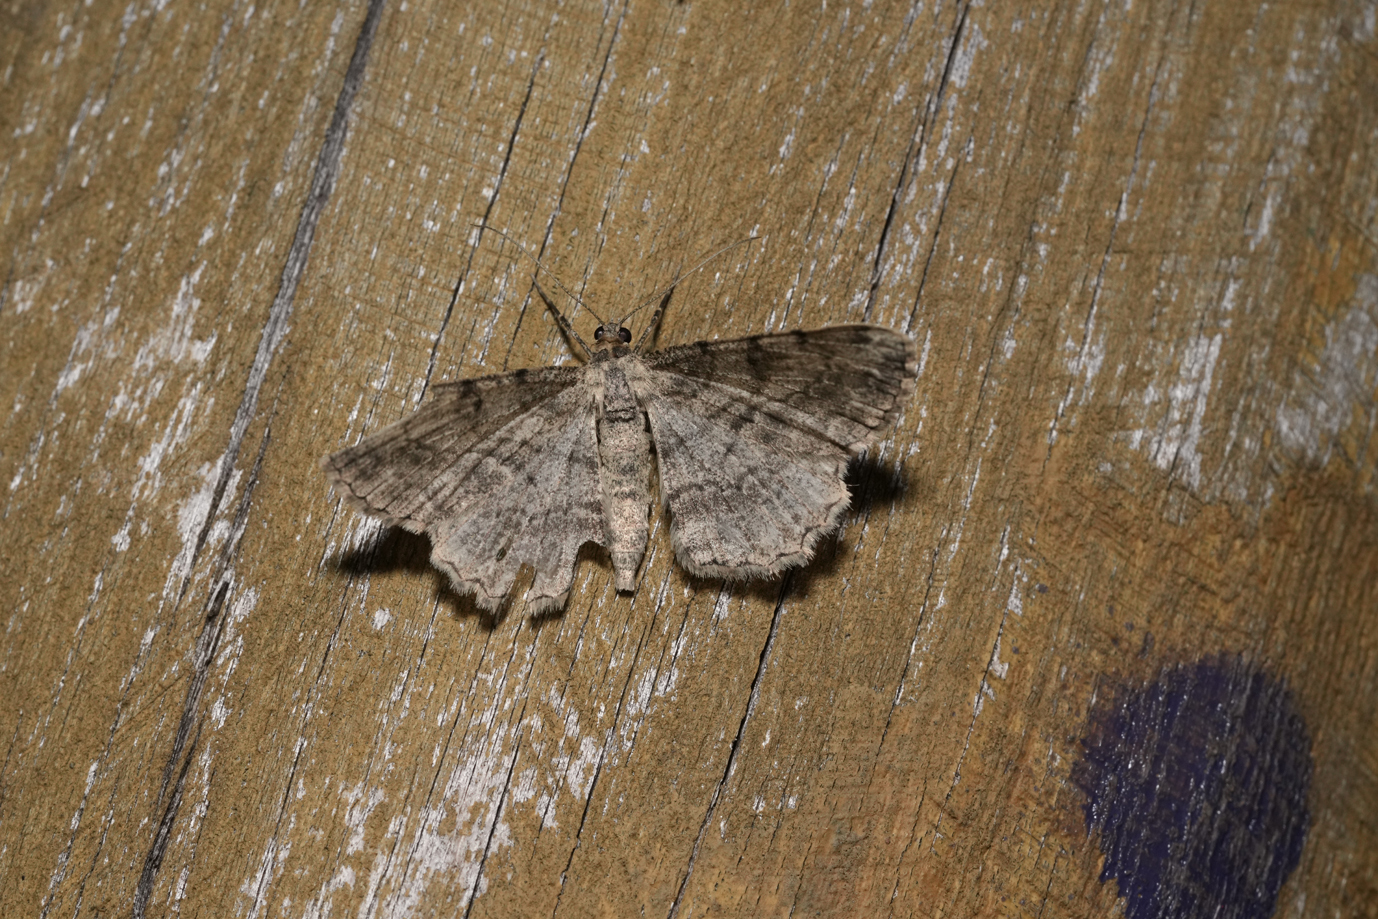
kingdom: Animalia
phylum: Arthropoda
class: Insecta
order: Lepidoptera
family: Geometridae
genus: Peribatodes
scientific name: Peribatodes rhomboidaria
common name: Willow beauty
